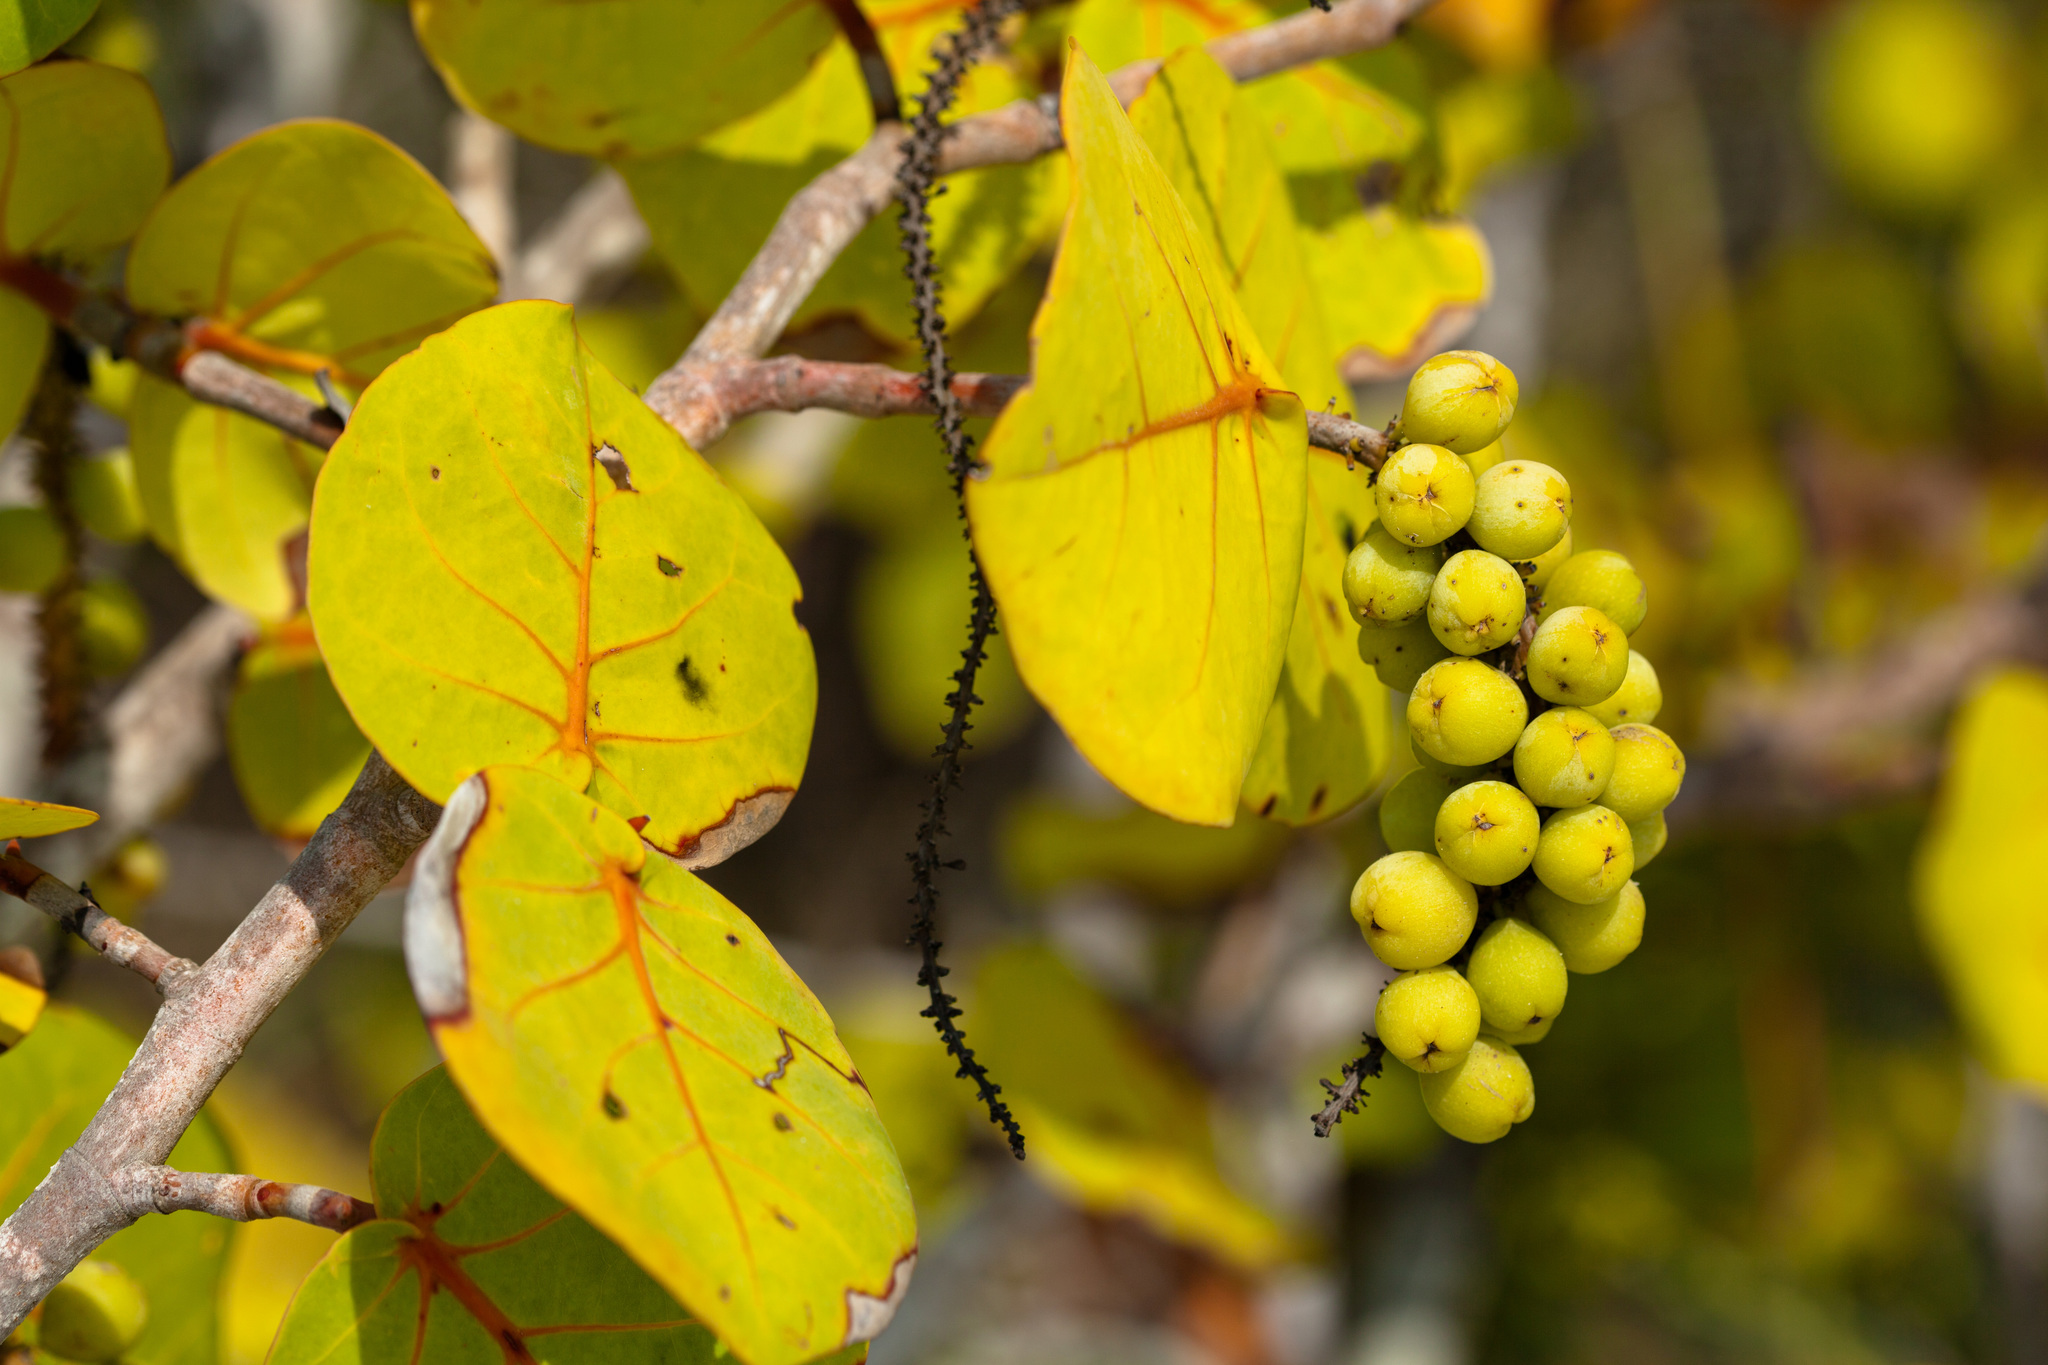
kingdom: Plantae
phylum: Tracheophyta
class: Magnoliopsida
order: Caryophyllales
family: Polygonaceae
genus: Coccoloba
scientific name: Coccoloba uvifera
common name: Seagrape
